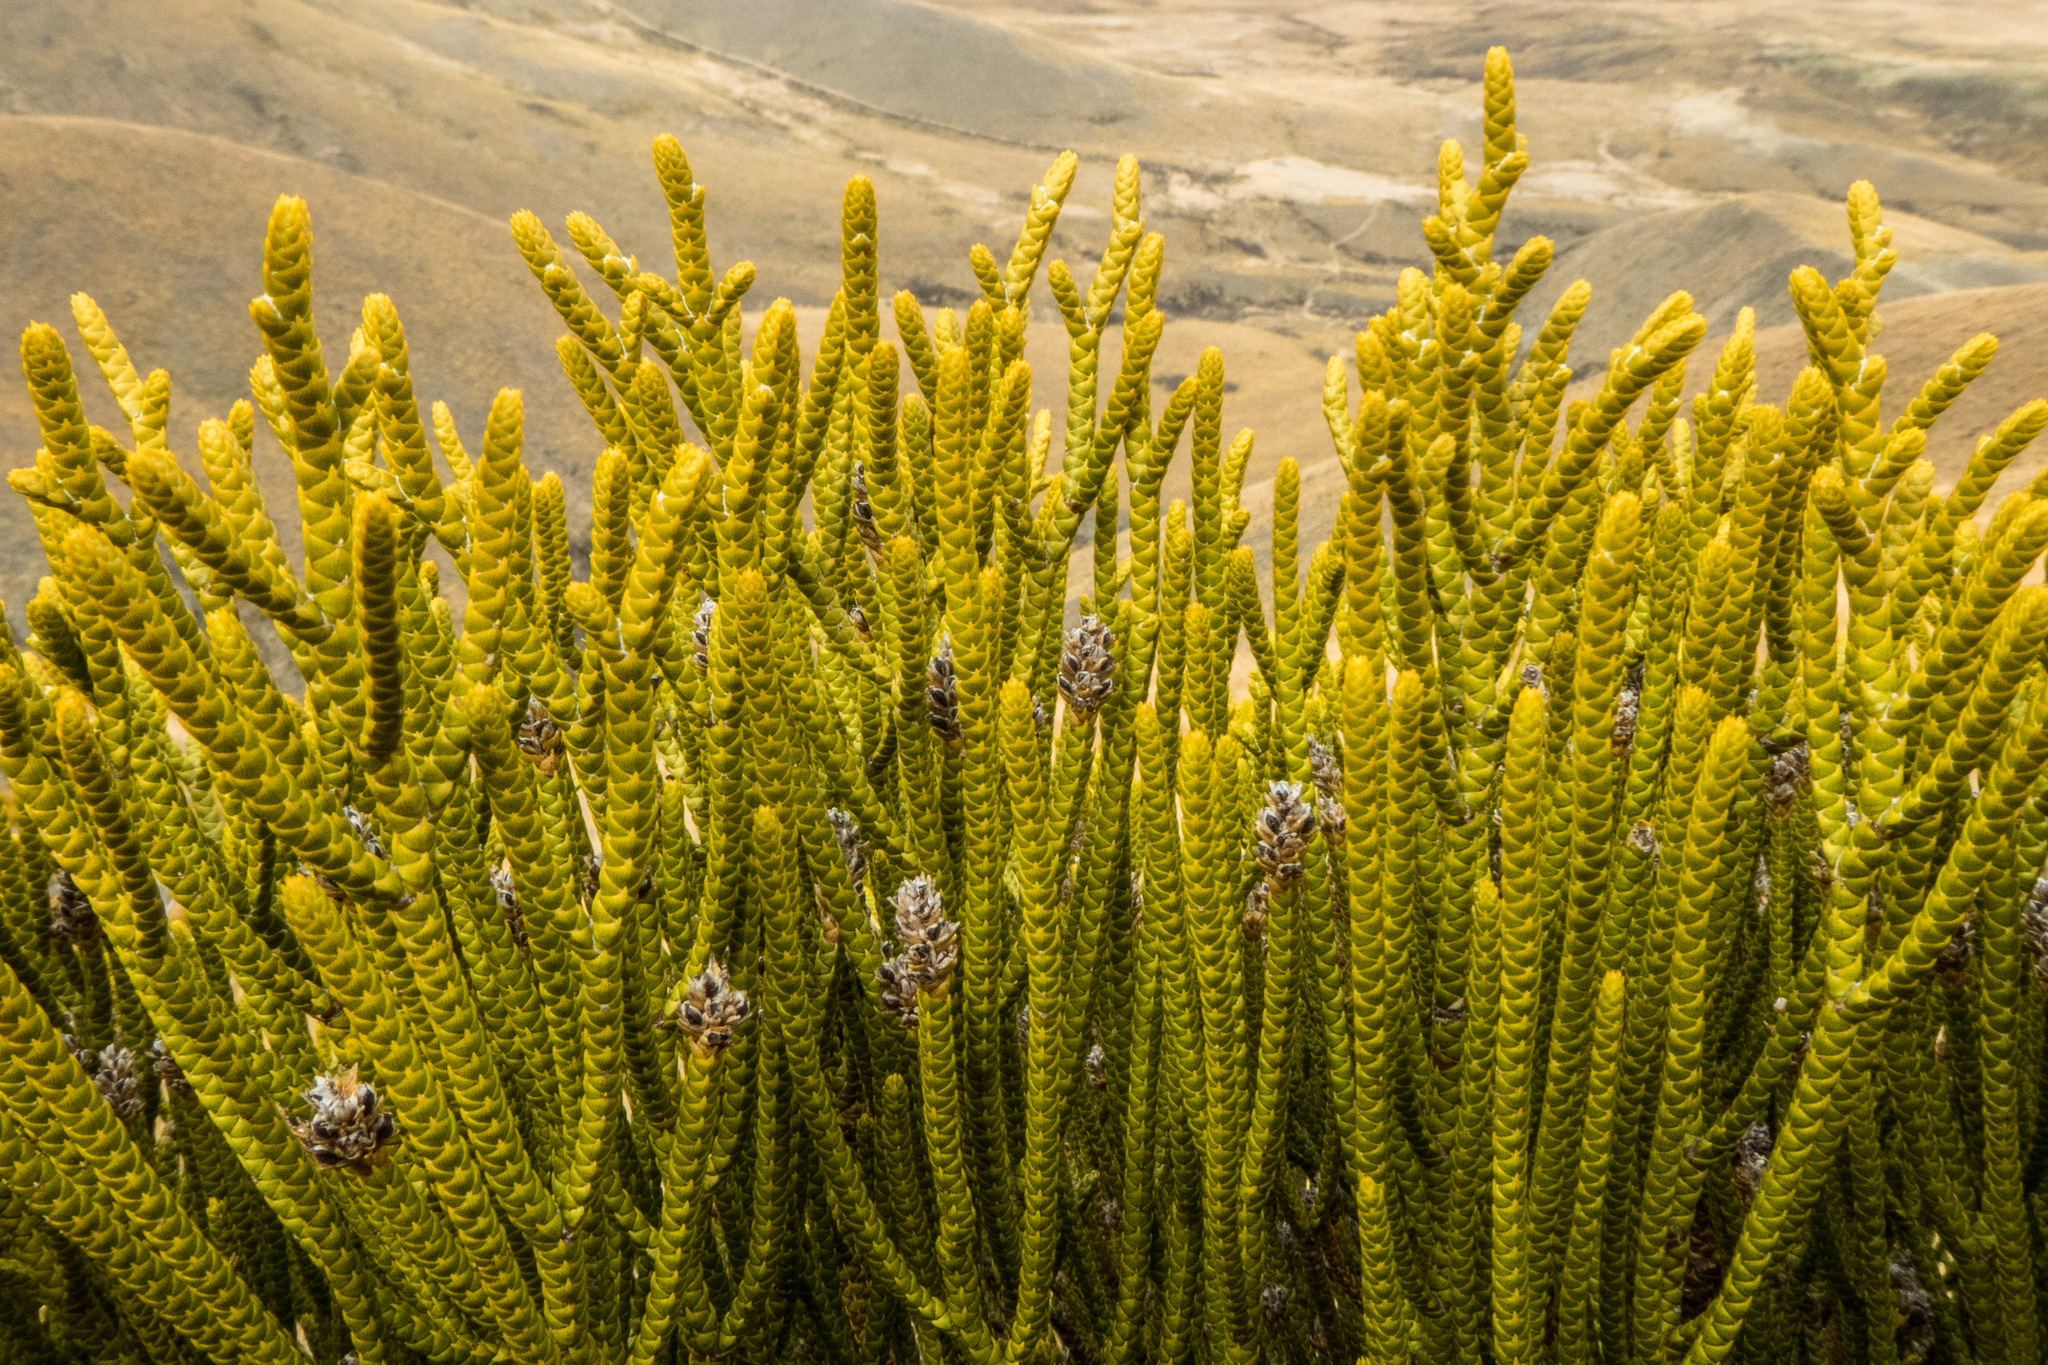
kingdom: Plantae
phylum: Tracheophyta
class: Magnoliopsida
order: Lamiales
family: Plantaginaceae
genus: Veronica
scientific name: Veronica lycopodioides
